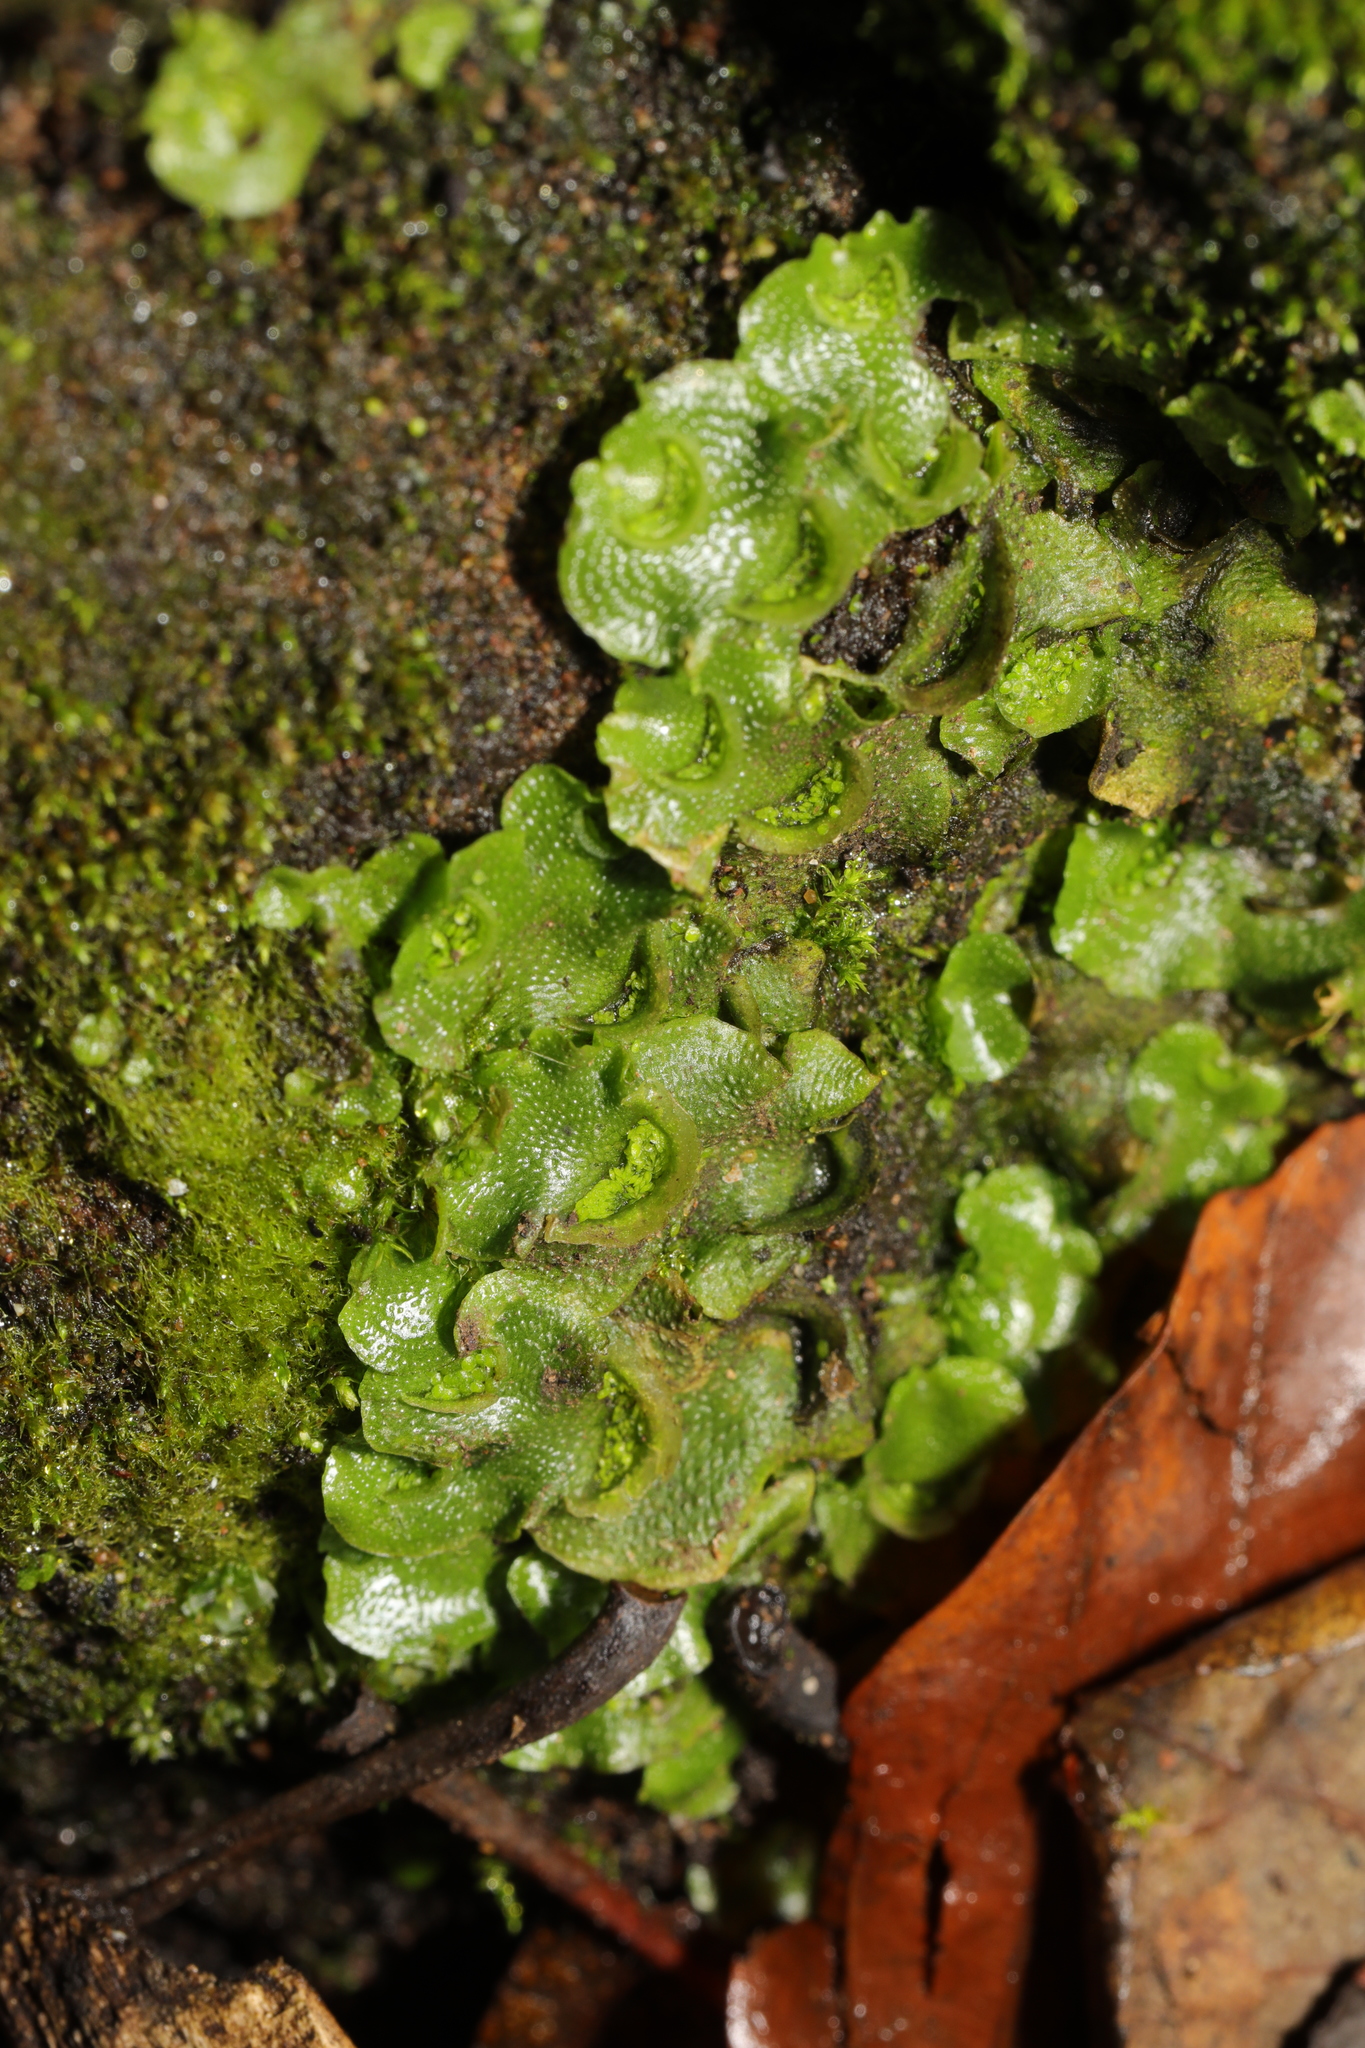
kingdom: Plantae
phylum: Marchantiophyta
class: Marchantiopsida
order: Lunulariales
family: Lunulariaceae
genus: Lunularia
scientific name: Lunularia cruciata
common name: Crescent-cup liverwort
